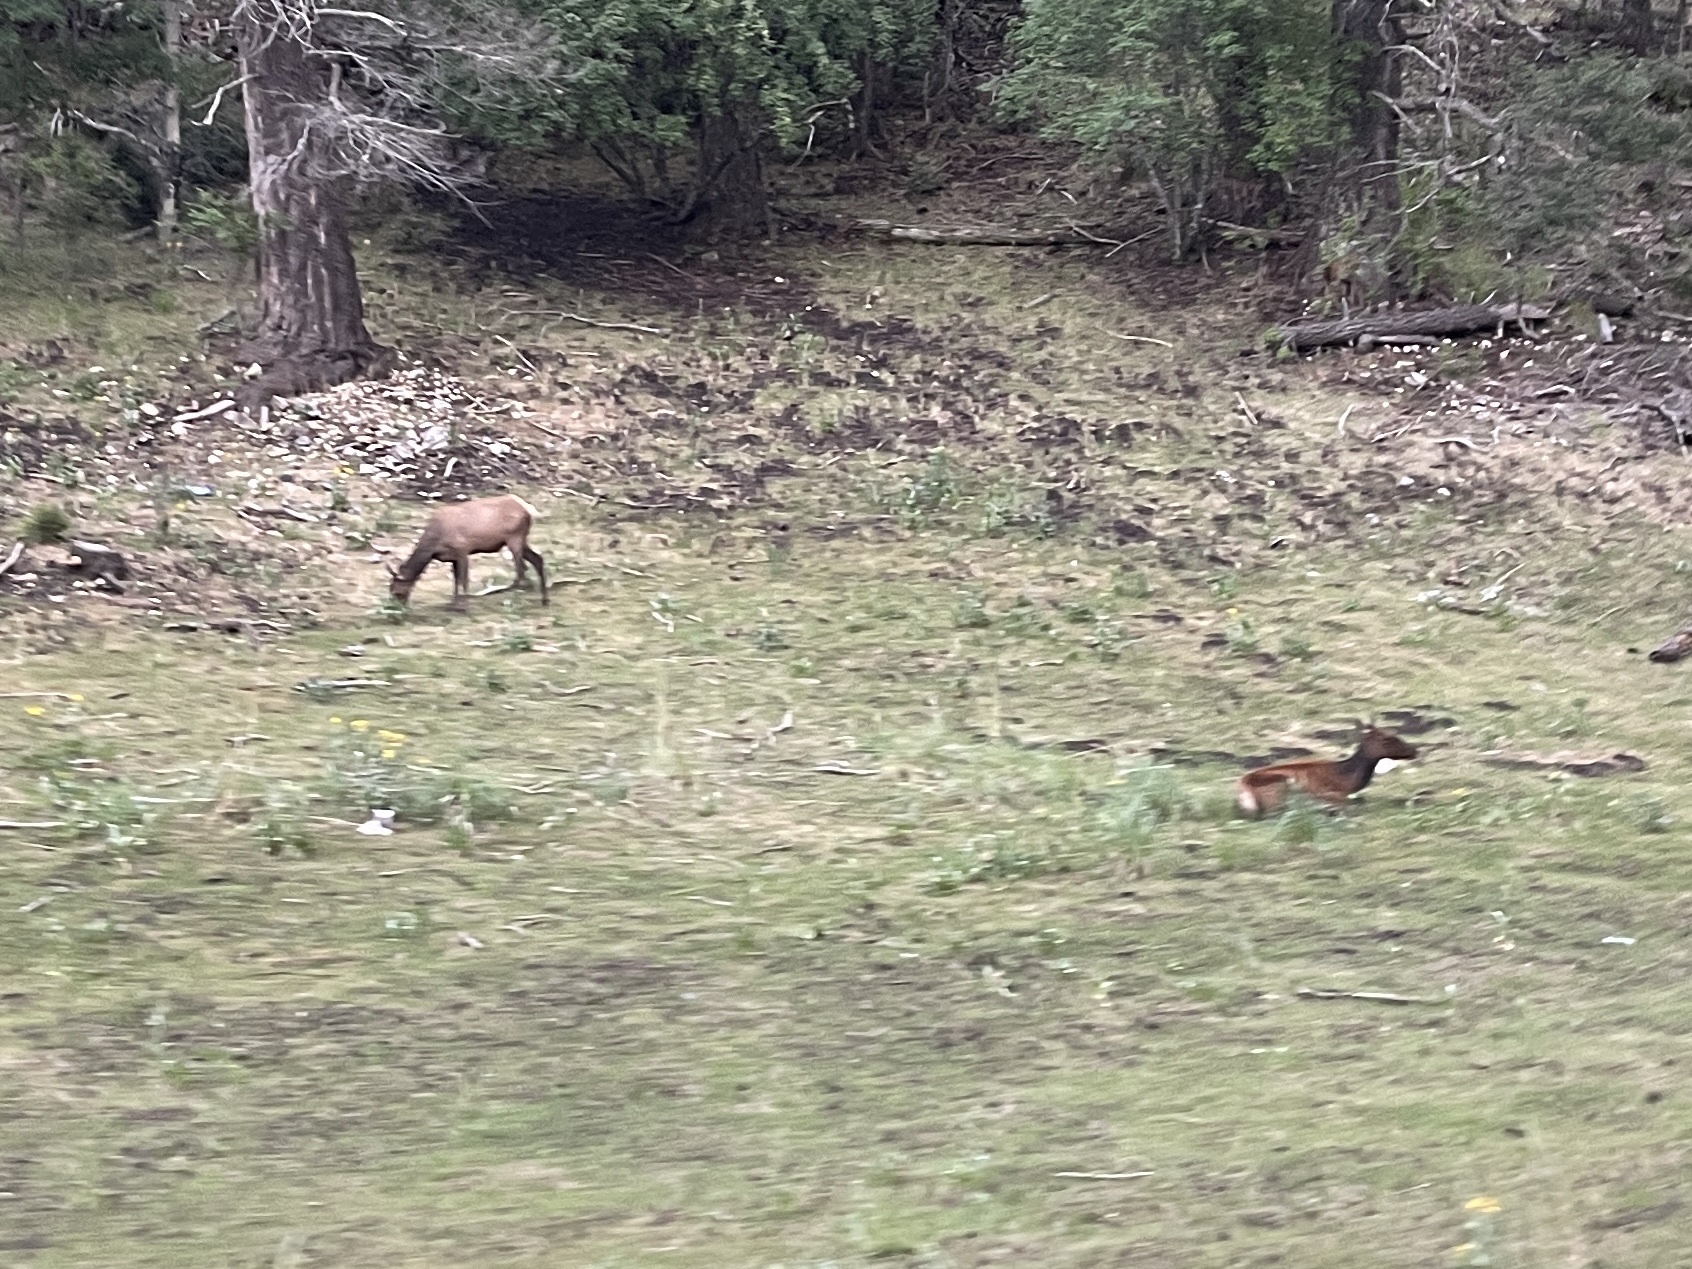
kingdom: Animalia
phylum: Chordata
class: Mammalia
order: Artiodactyla
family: Cervidae
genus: Cervus
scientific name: Cervus elaphus
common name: Red deer
